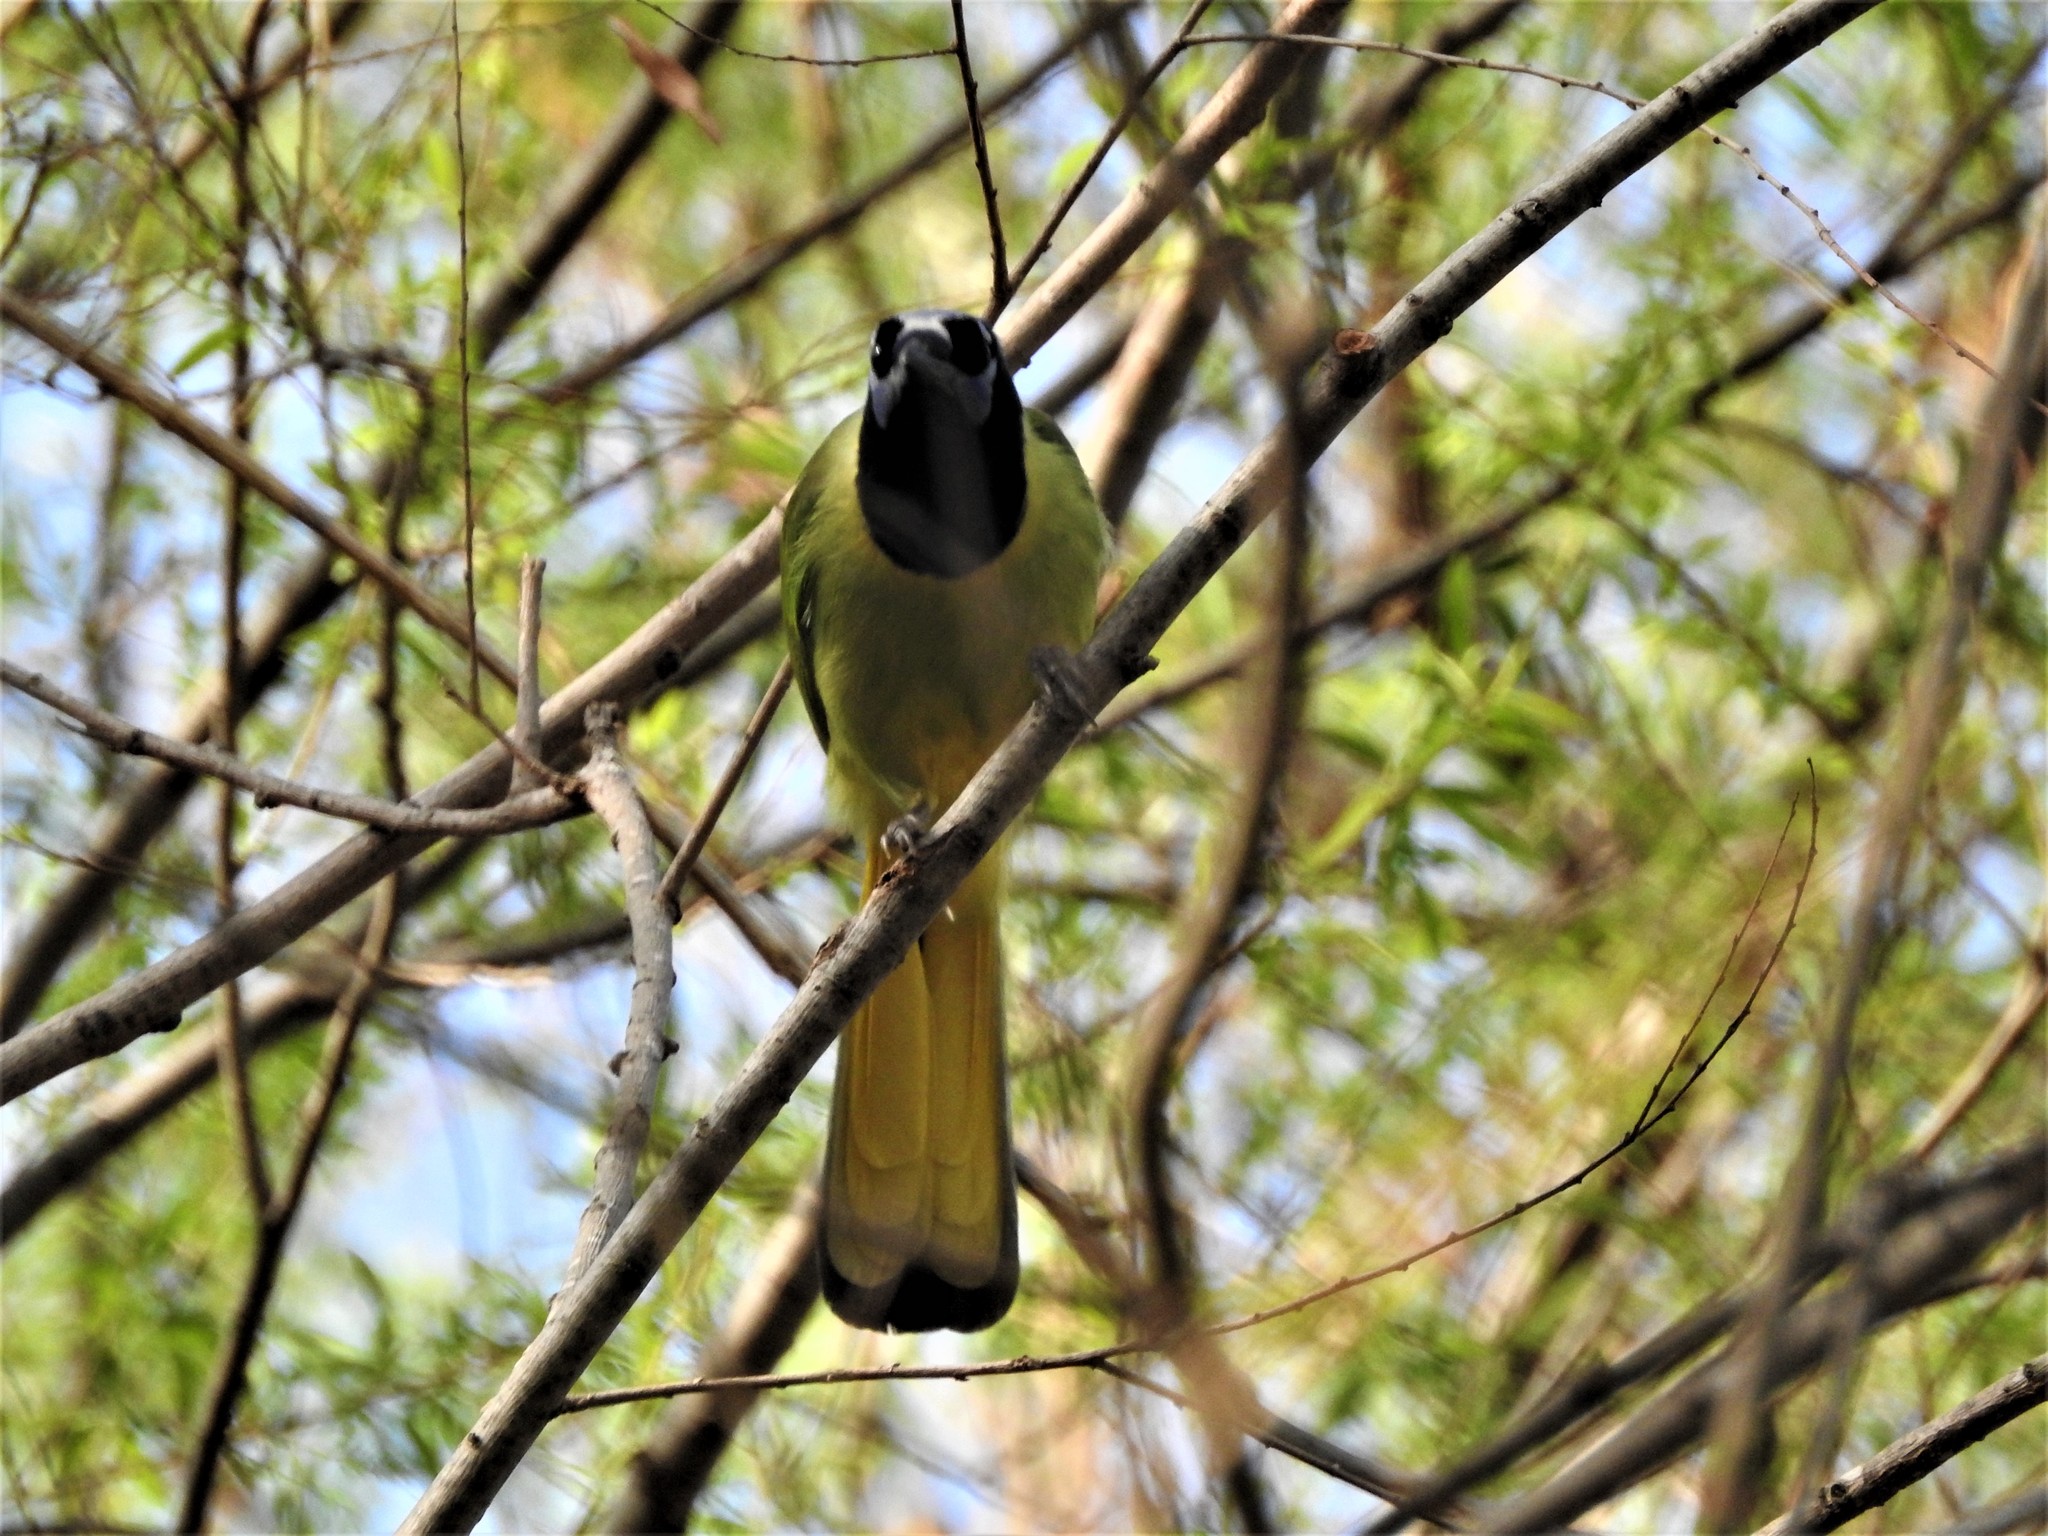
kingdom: Animalia
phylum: Chordata
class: Aves
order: Passeriformes
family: Corvidae
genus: Cyanocorax
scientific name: Cyanocorax yncas
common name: Green jay
